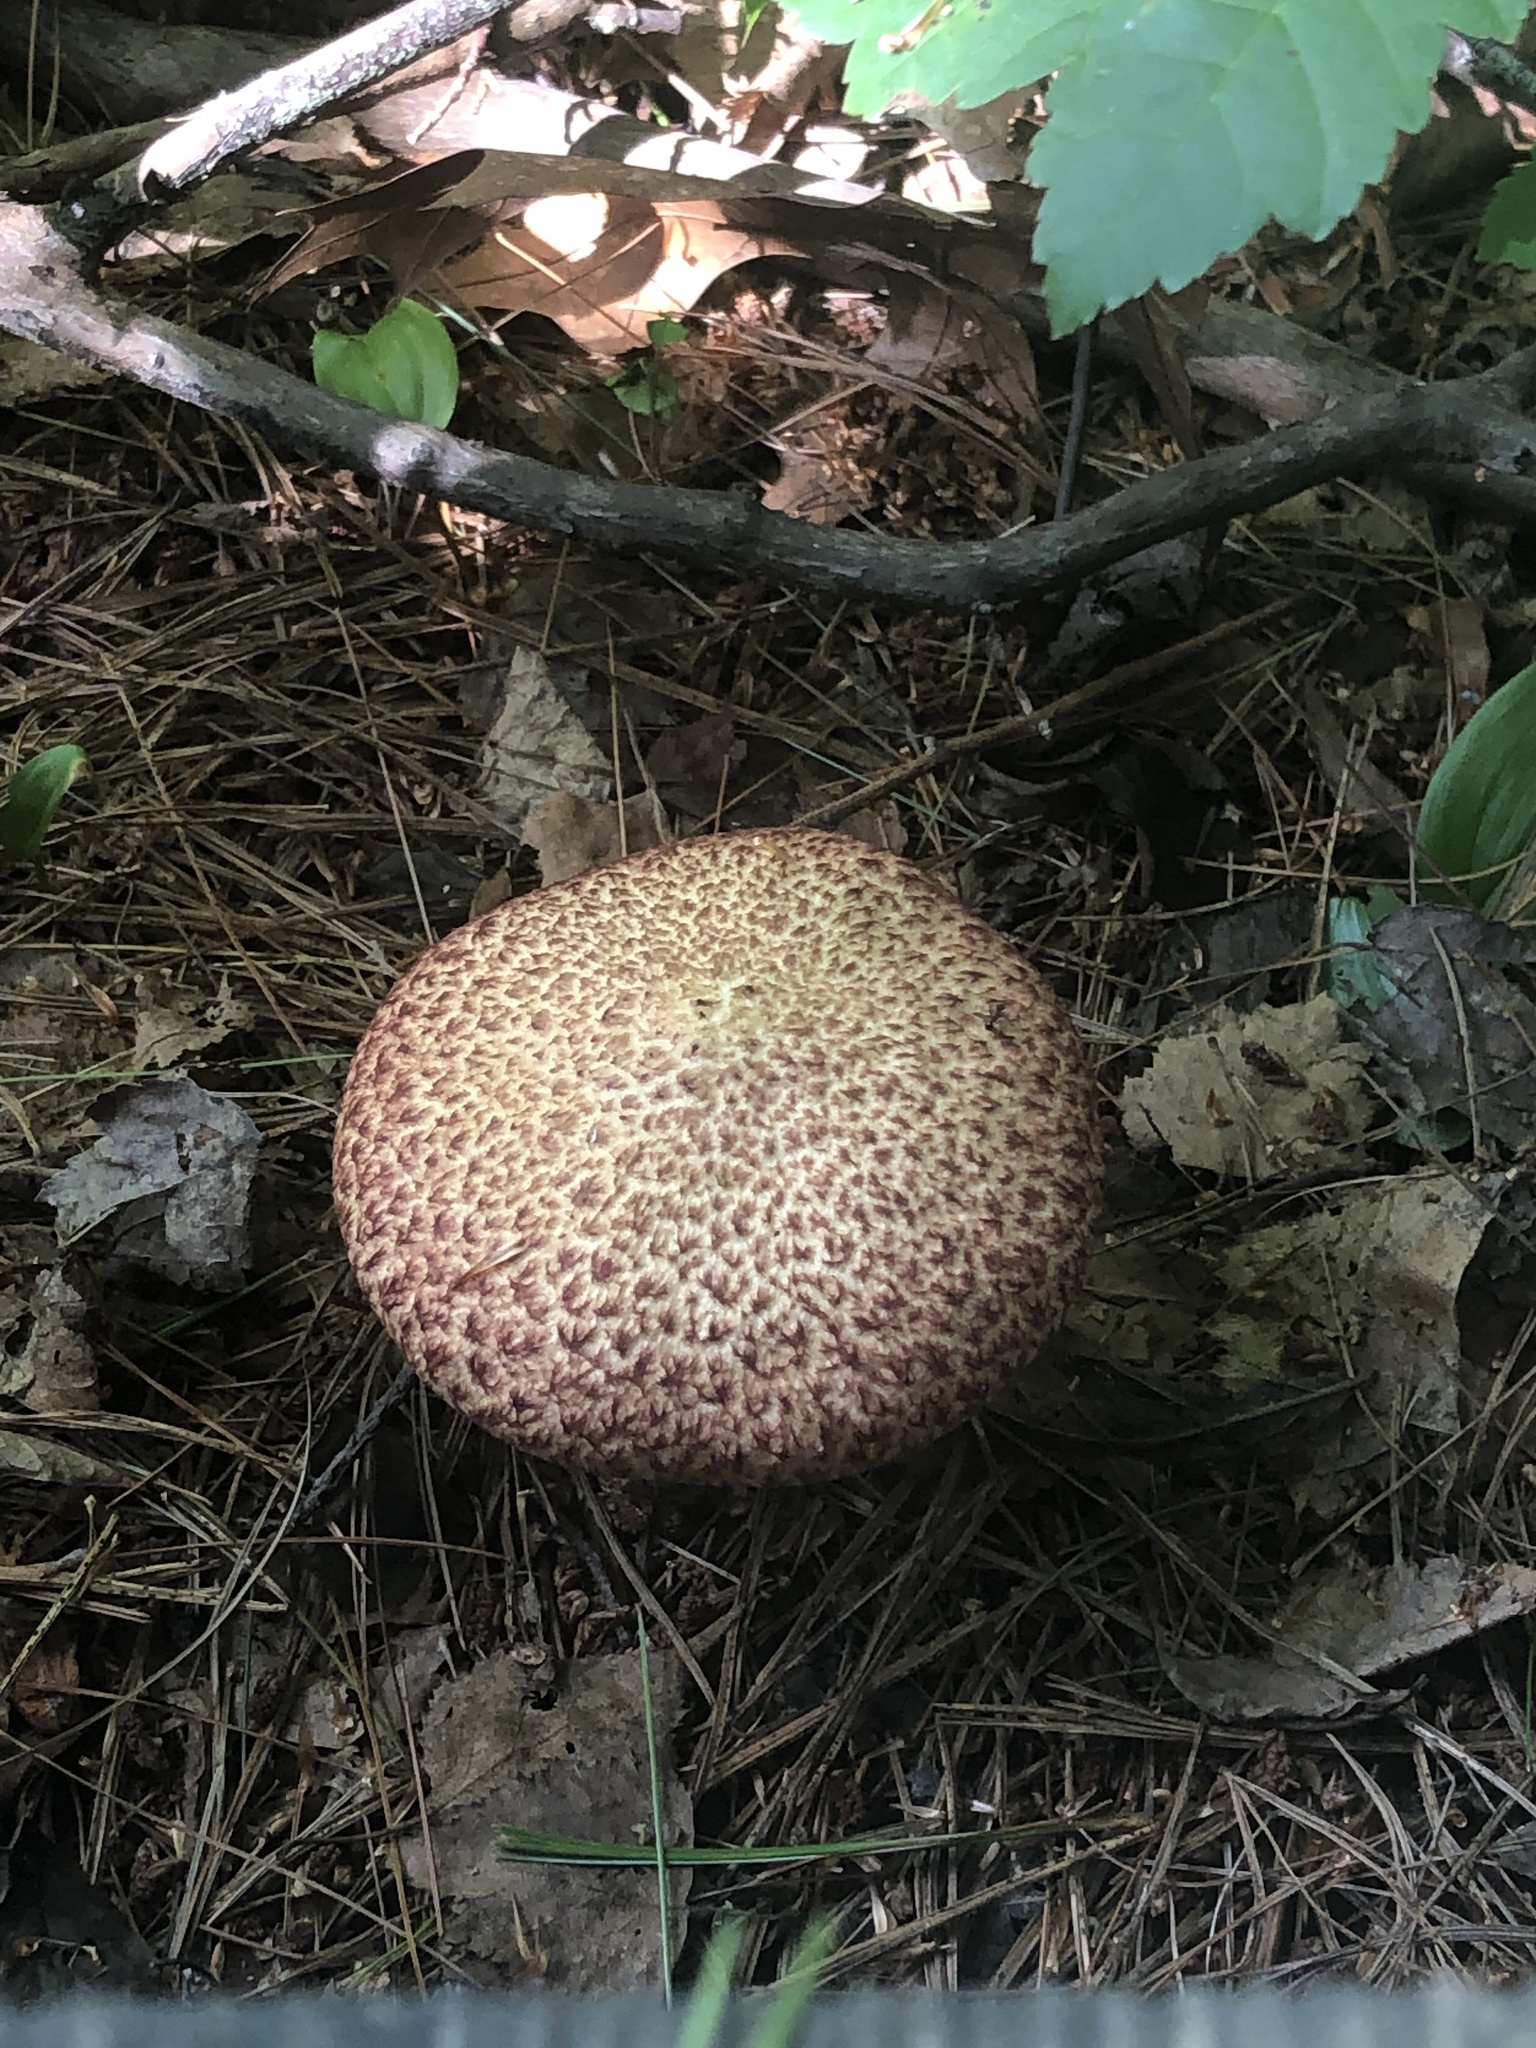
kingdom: Fungi
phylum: Basidiomycota
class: Agaricomycetes
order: Boletales
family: Suillaceae
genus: Suillus
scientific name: Suillus spraguei
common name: Painted suillus
